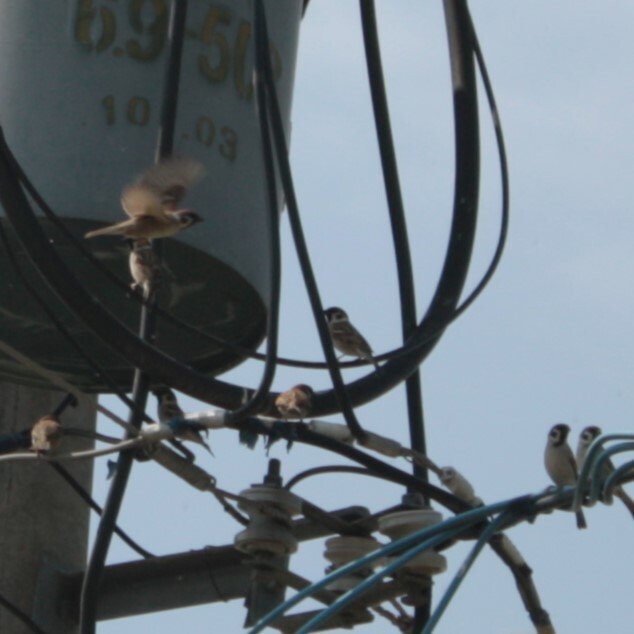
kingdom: Animalia
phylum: Chordata
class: Aves
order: Passeriformes
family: Passeridae
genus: Passer
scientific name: Passer montanus
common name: Eurasian tree sparrow
